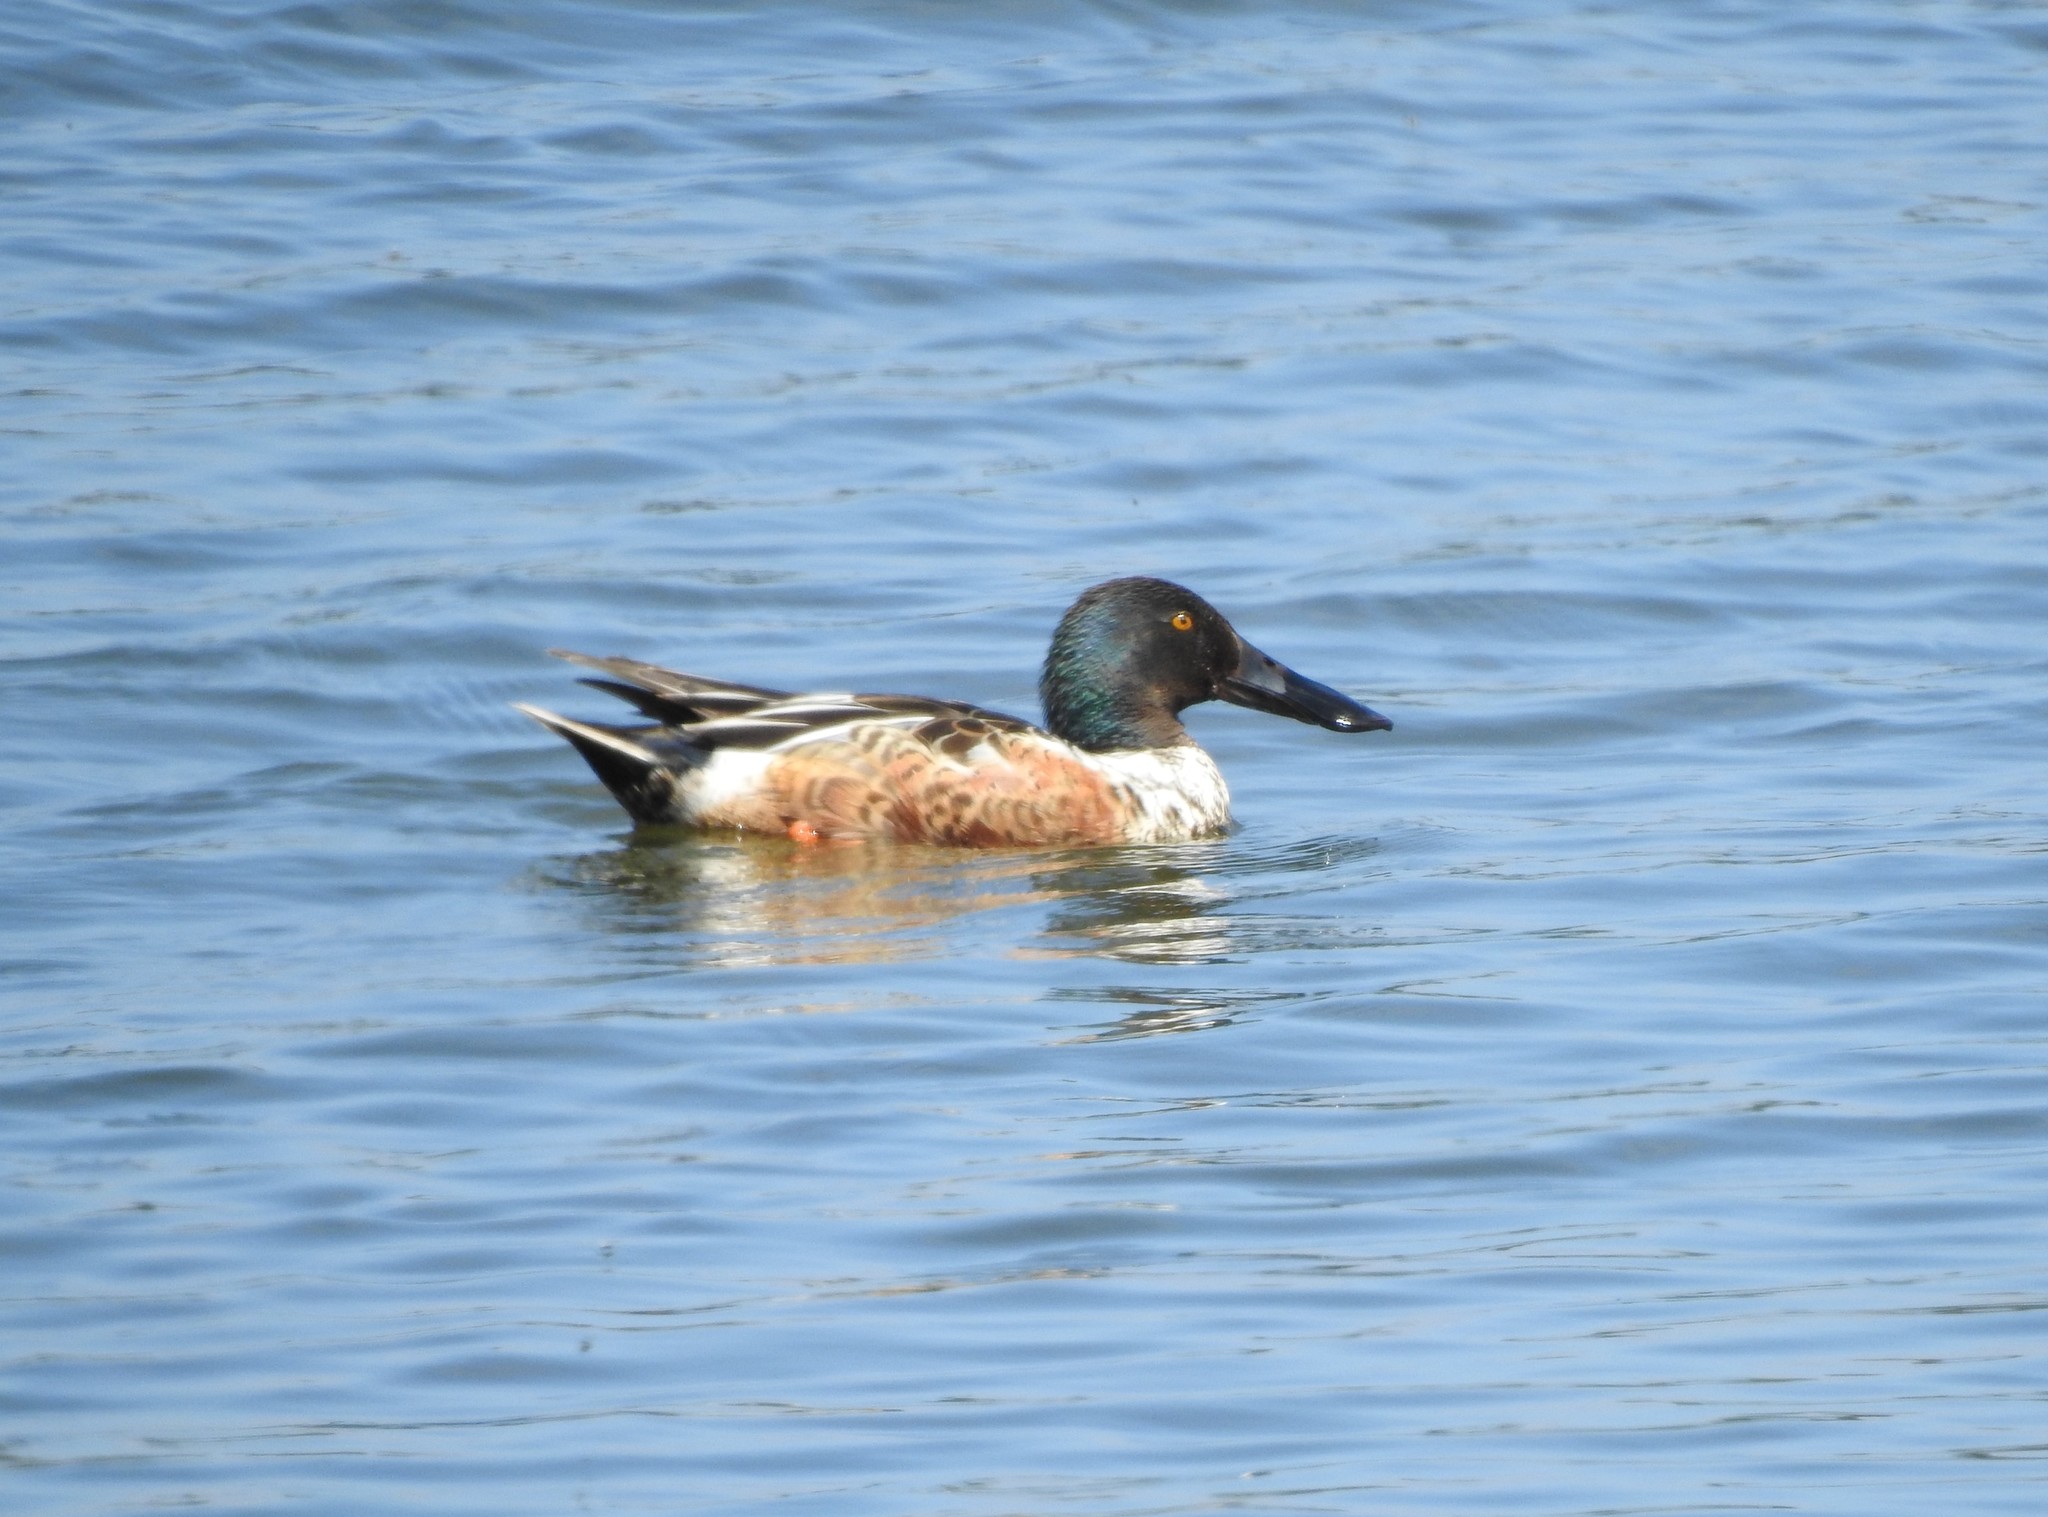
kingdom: Animalia
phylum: Chordata
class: Aves
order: Anseriformes
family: Anatidae
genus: Spatula
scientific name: Spatula clypeata
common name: Northern shoveler
